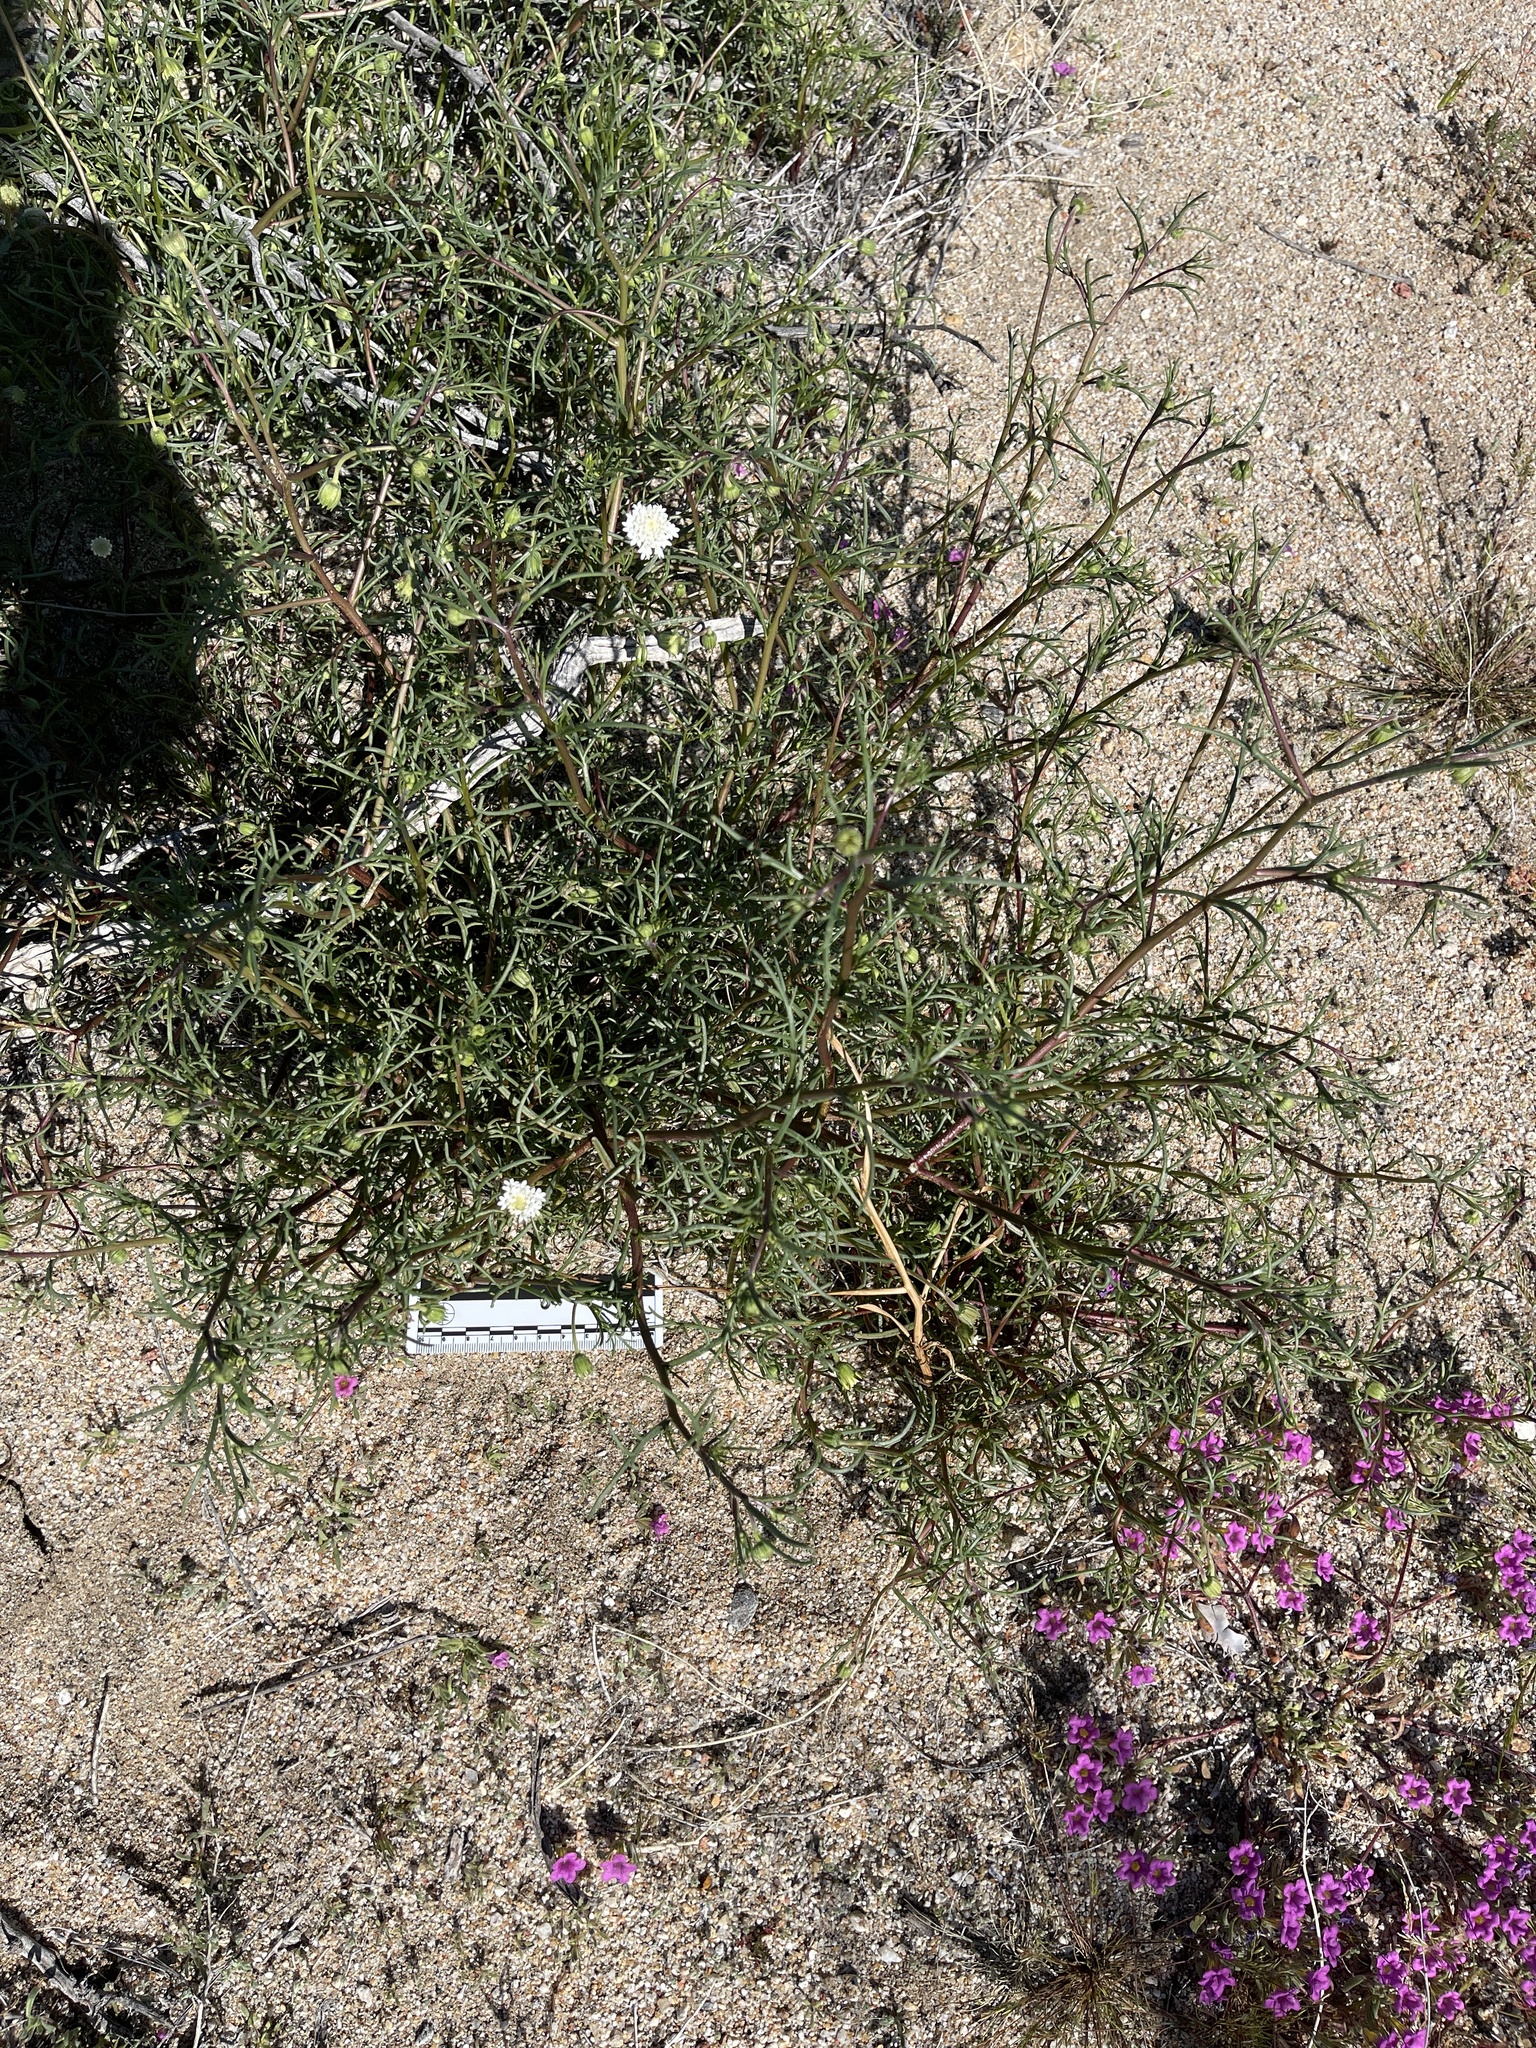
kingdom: Plantae
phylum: Tracheophyta
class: Magnoliopsida
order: Asterales
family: Asteraceae
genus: Chaenactis
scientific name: Chaenactis fremontii
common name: Fremont pincushion
